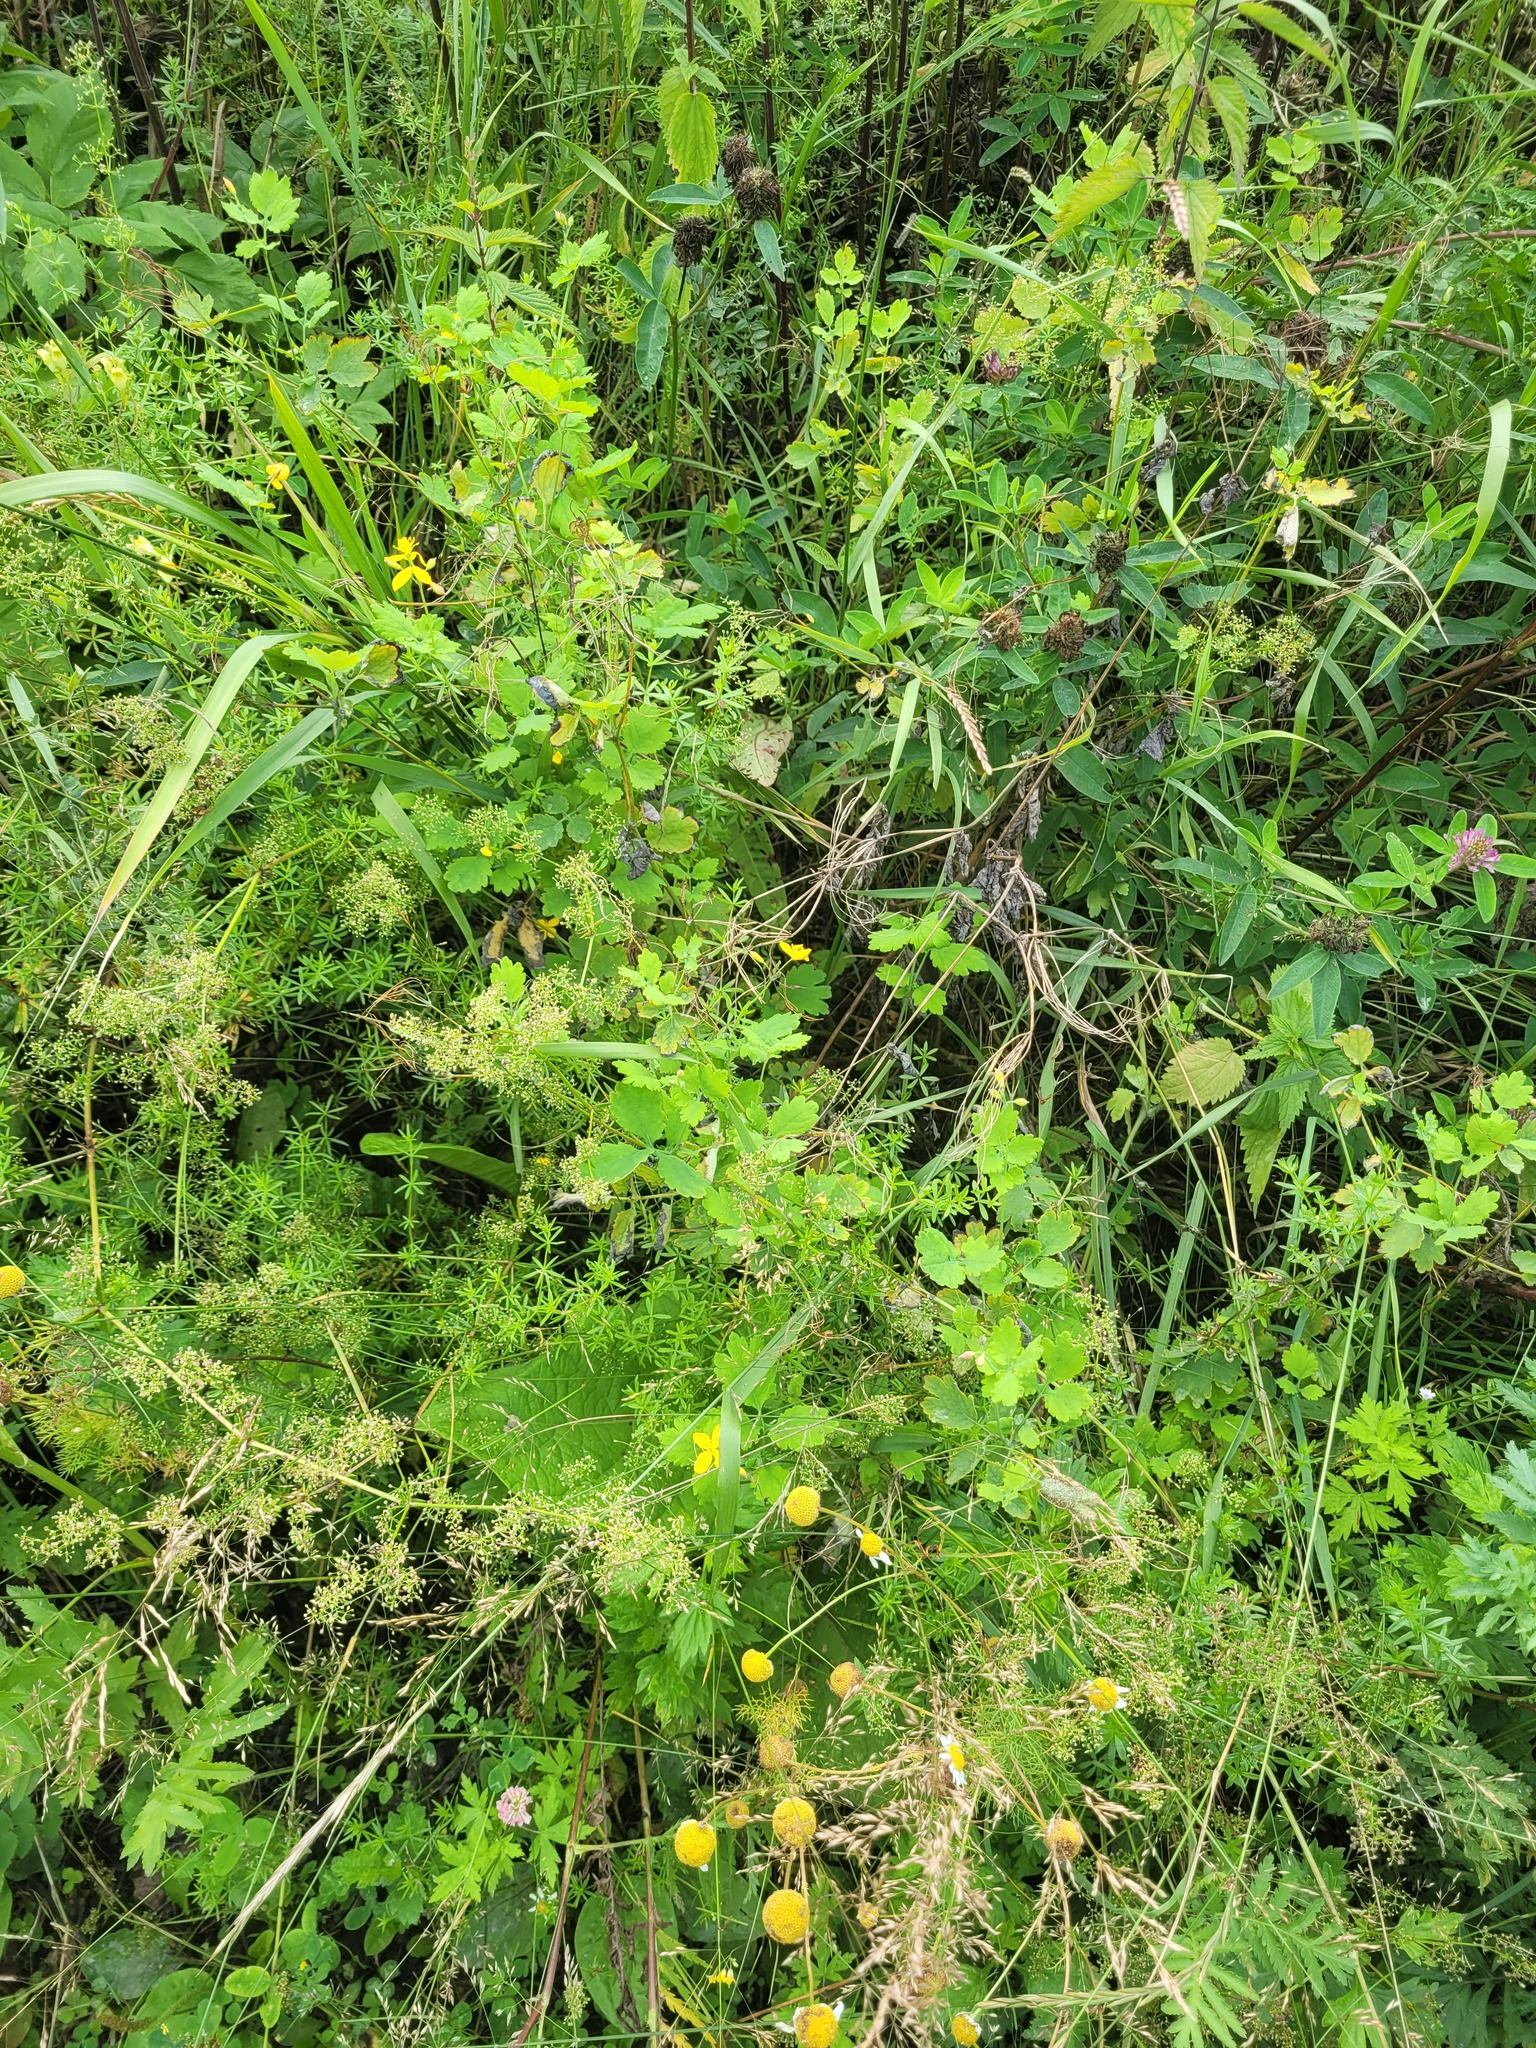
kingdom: Plantae
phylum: Tracheophyta
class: Magnoliopsida
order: Ranunculales
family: Papaveraceae
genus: Chelidonium
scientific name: Chelidonium majus
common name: Greater celandine
